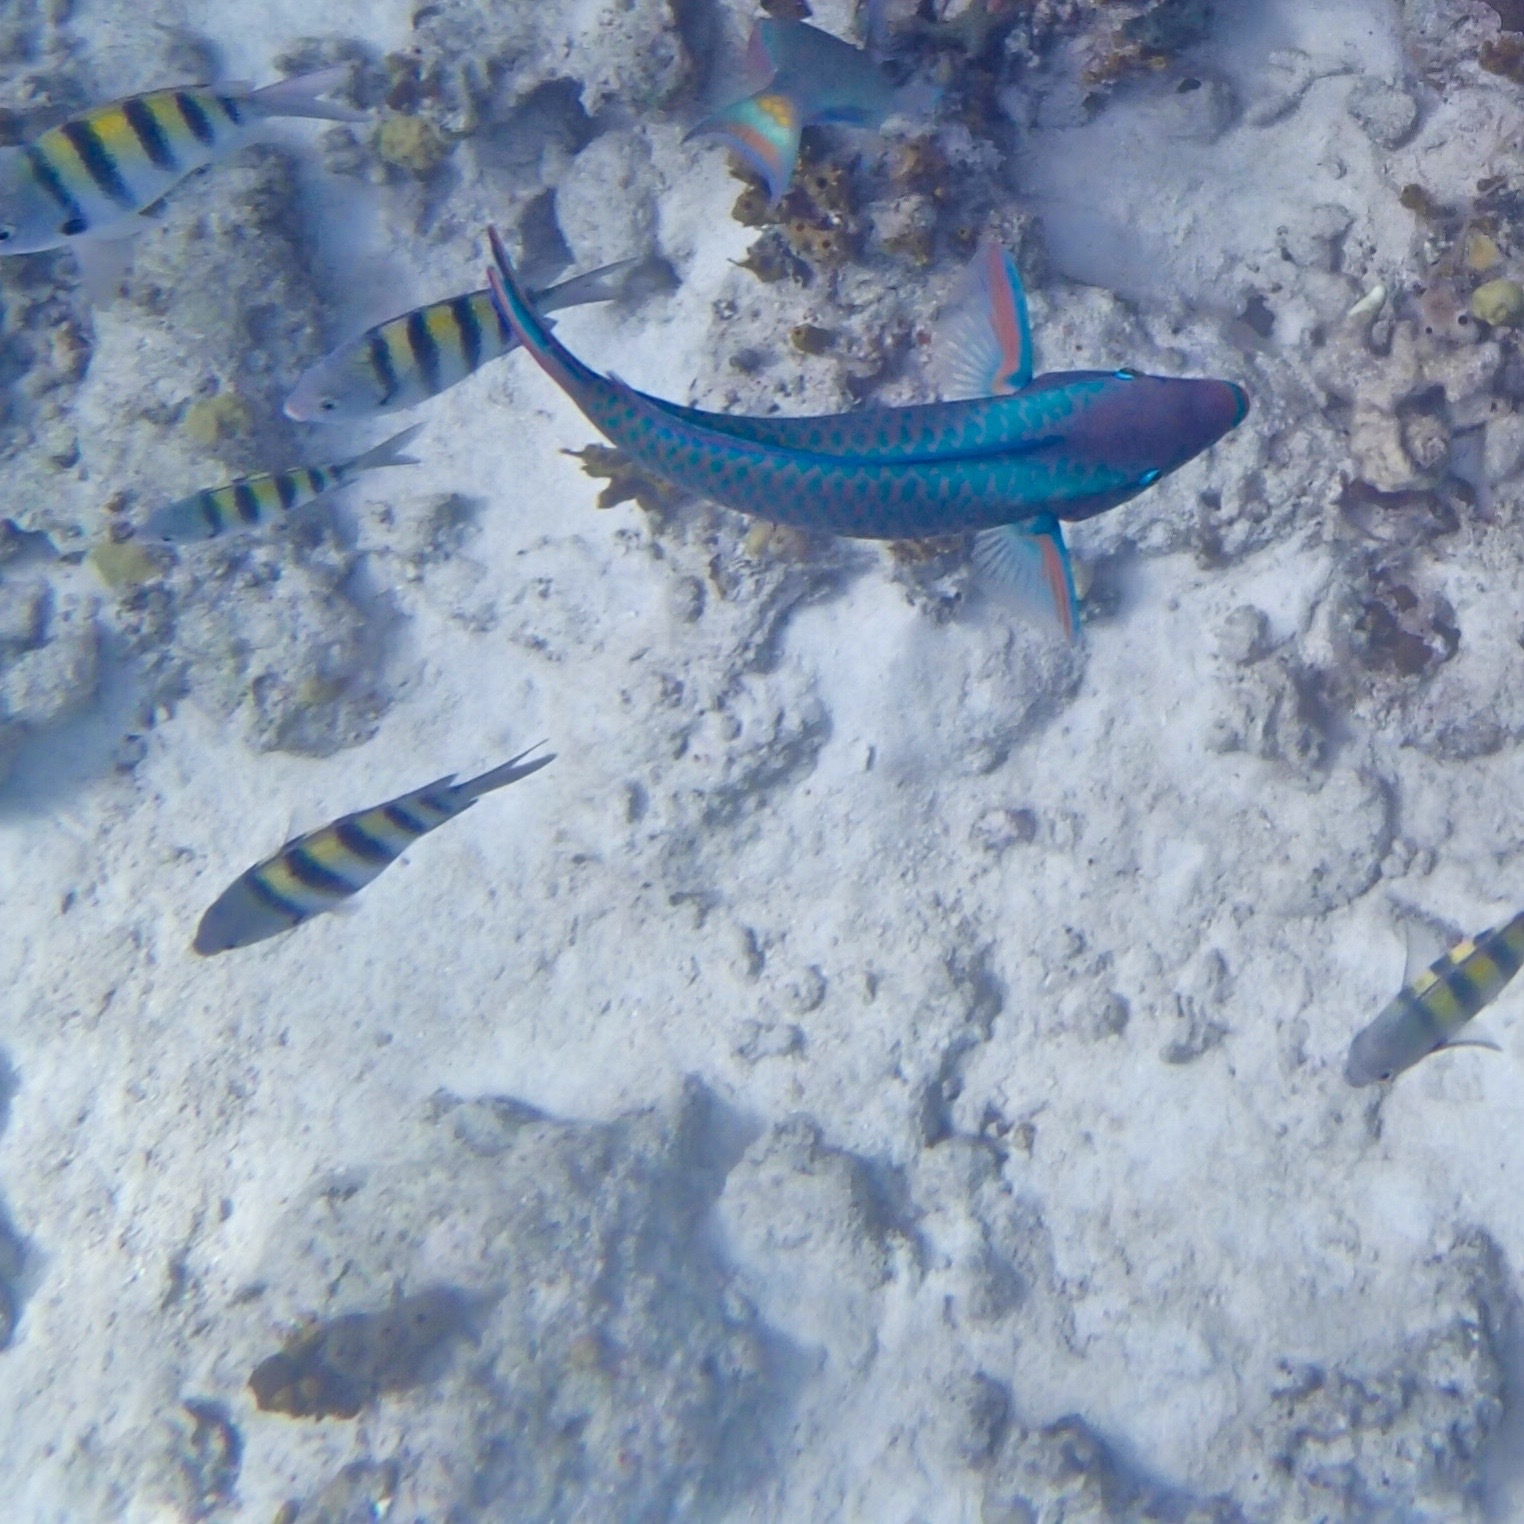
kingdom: Animalia
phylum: Chordata
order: Perciformes
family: Scaridae
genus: Scarus
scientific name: Scarus vetula
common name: Queen parrotfish
